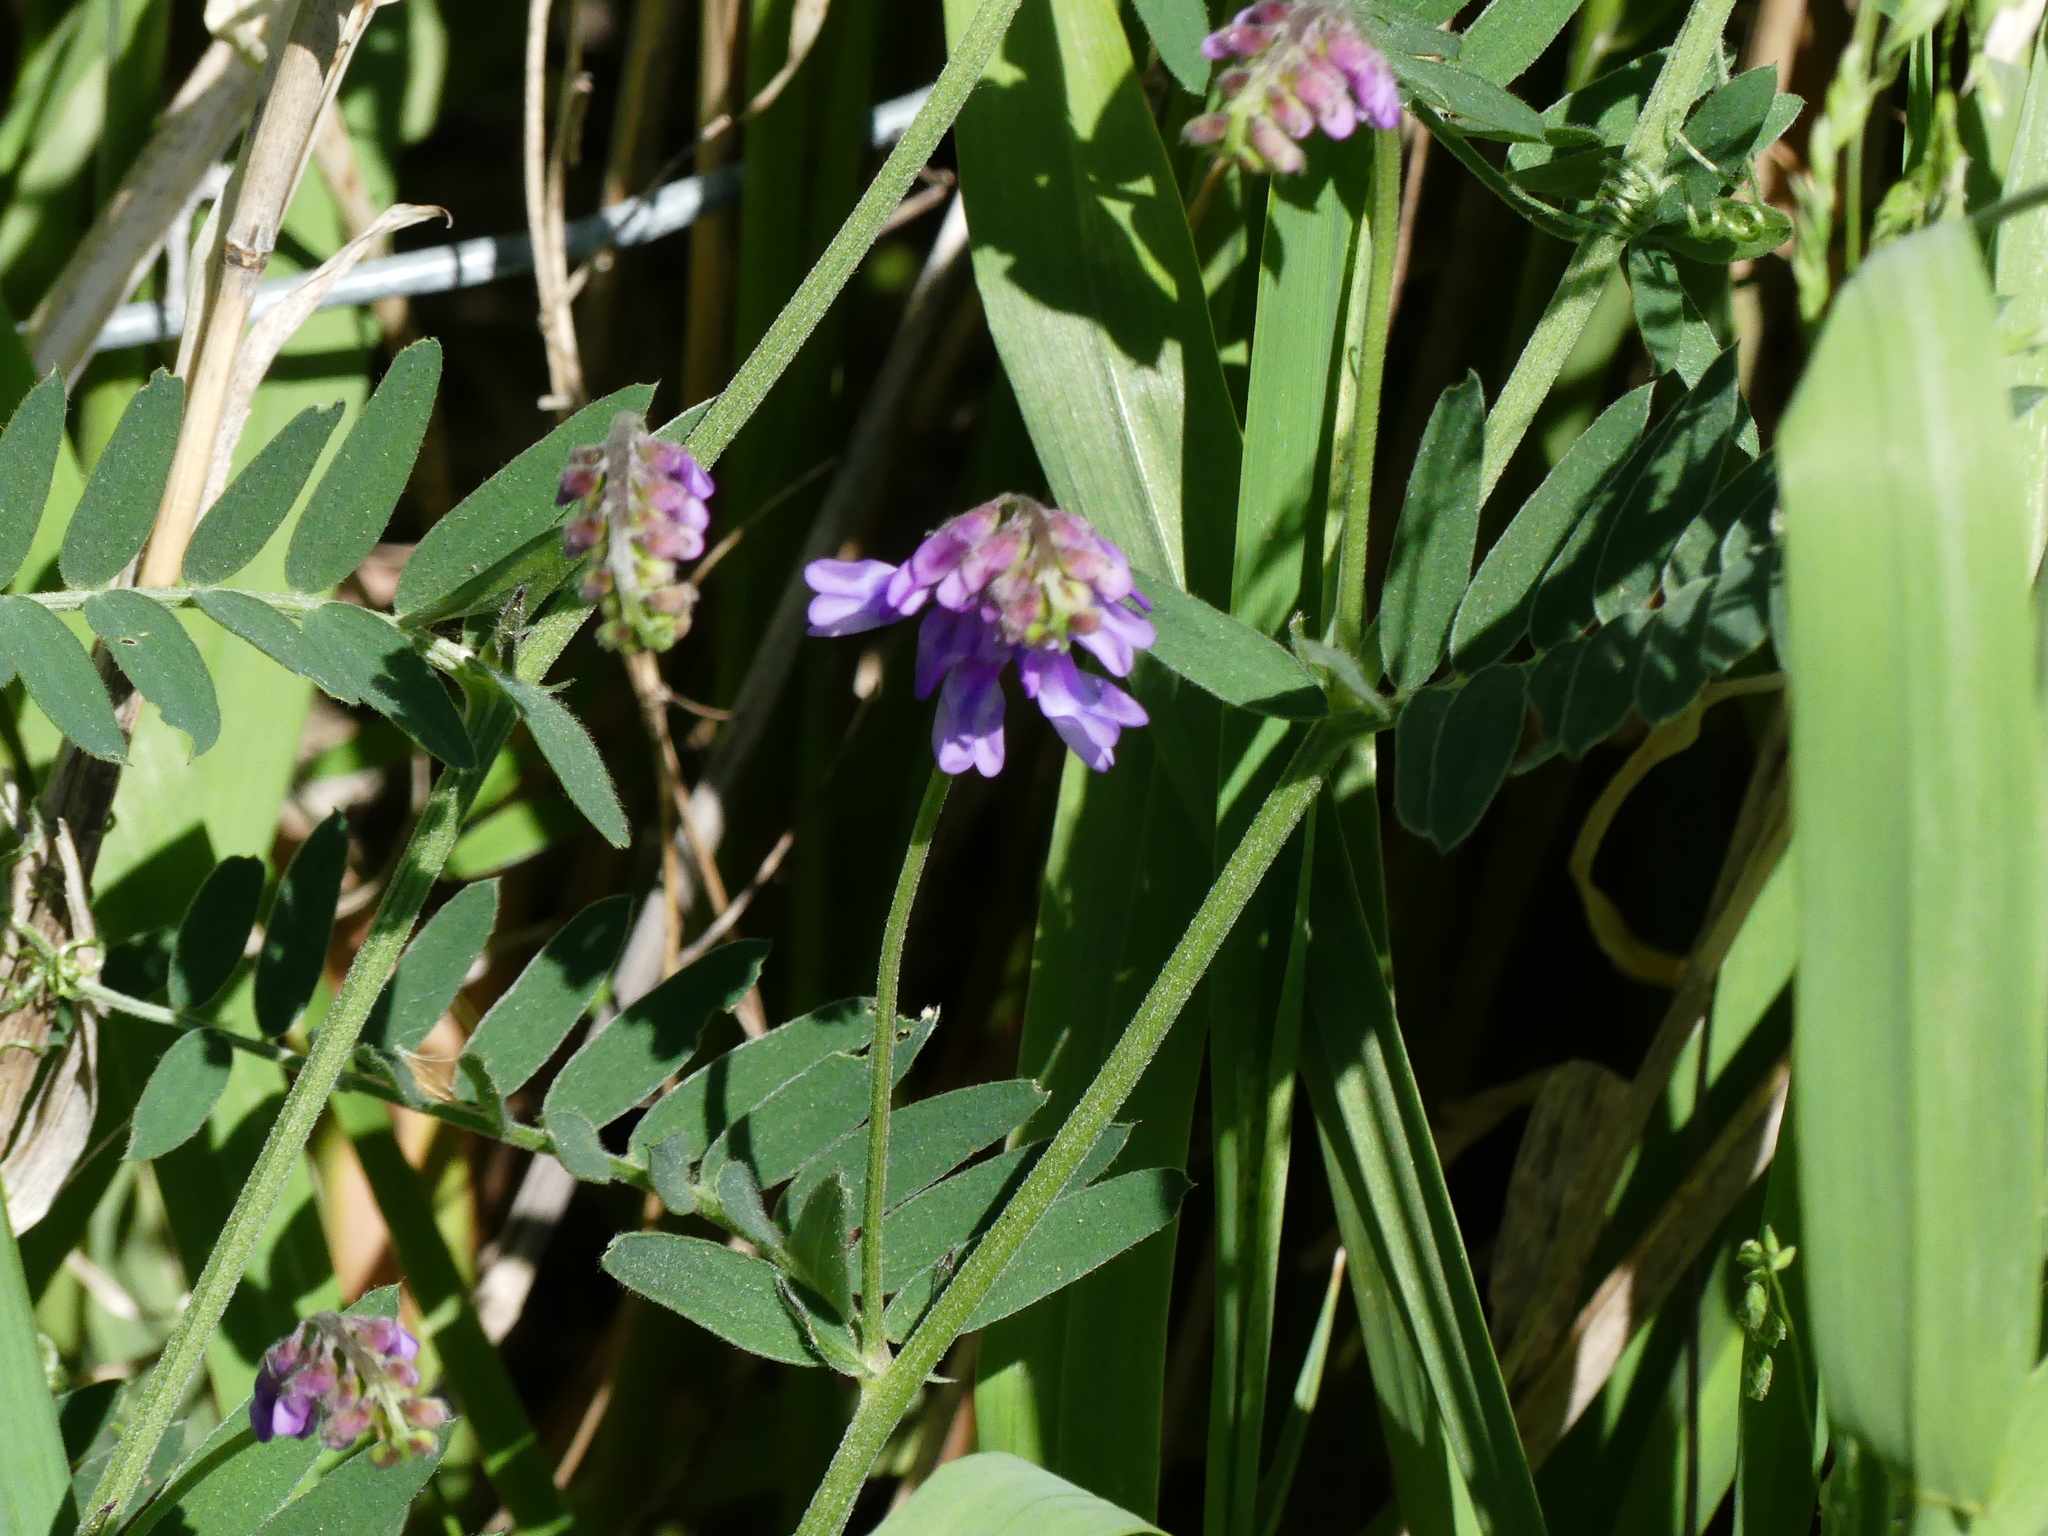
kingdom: Plantae
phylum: Tracheophyta
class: Magnoliopsida
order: Fabales
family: Fabaceae
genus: Vicia
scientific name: Vicia cracca
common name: Bird vetch
